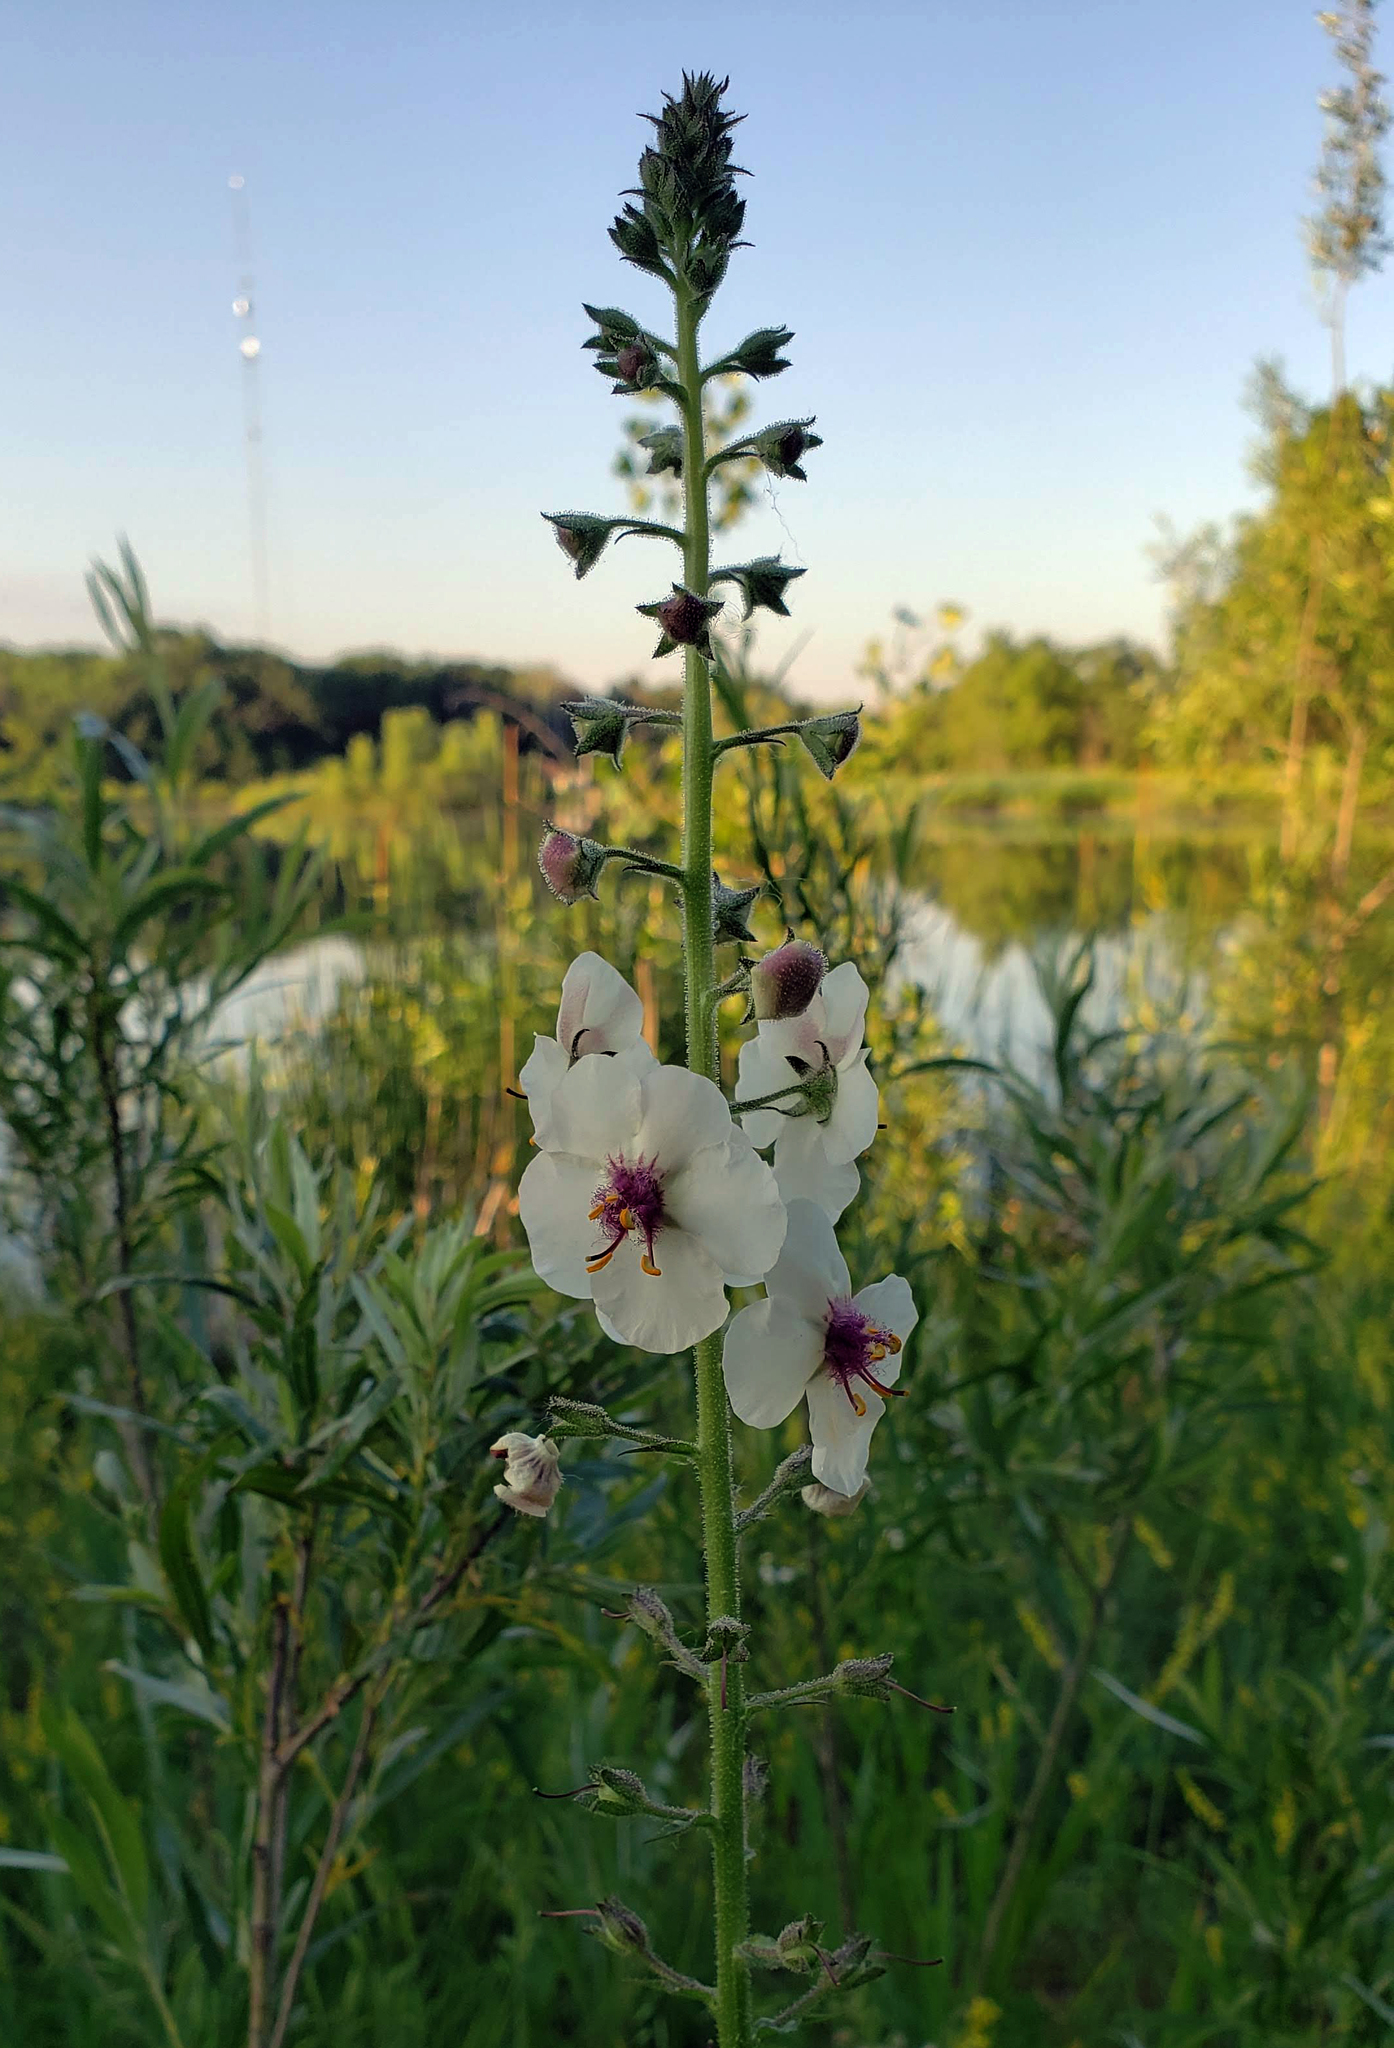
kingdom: Plantae
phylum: Tracheophyta
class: Magnoliopsida
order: Lamiales
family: Scrophulariaceae
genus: Verbascum
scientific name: Verbascum blattaria
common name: Moth mullein
